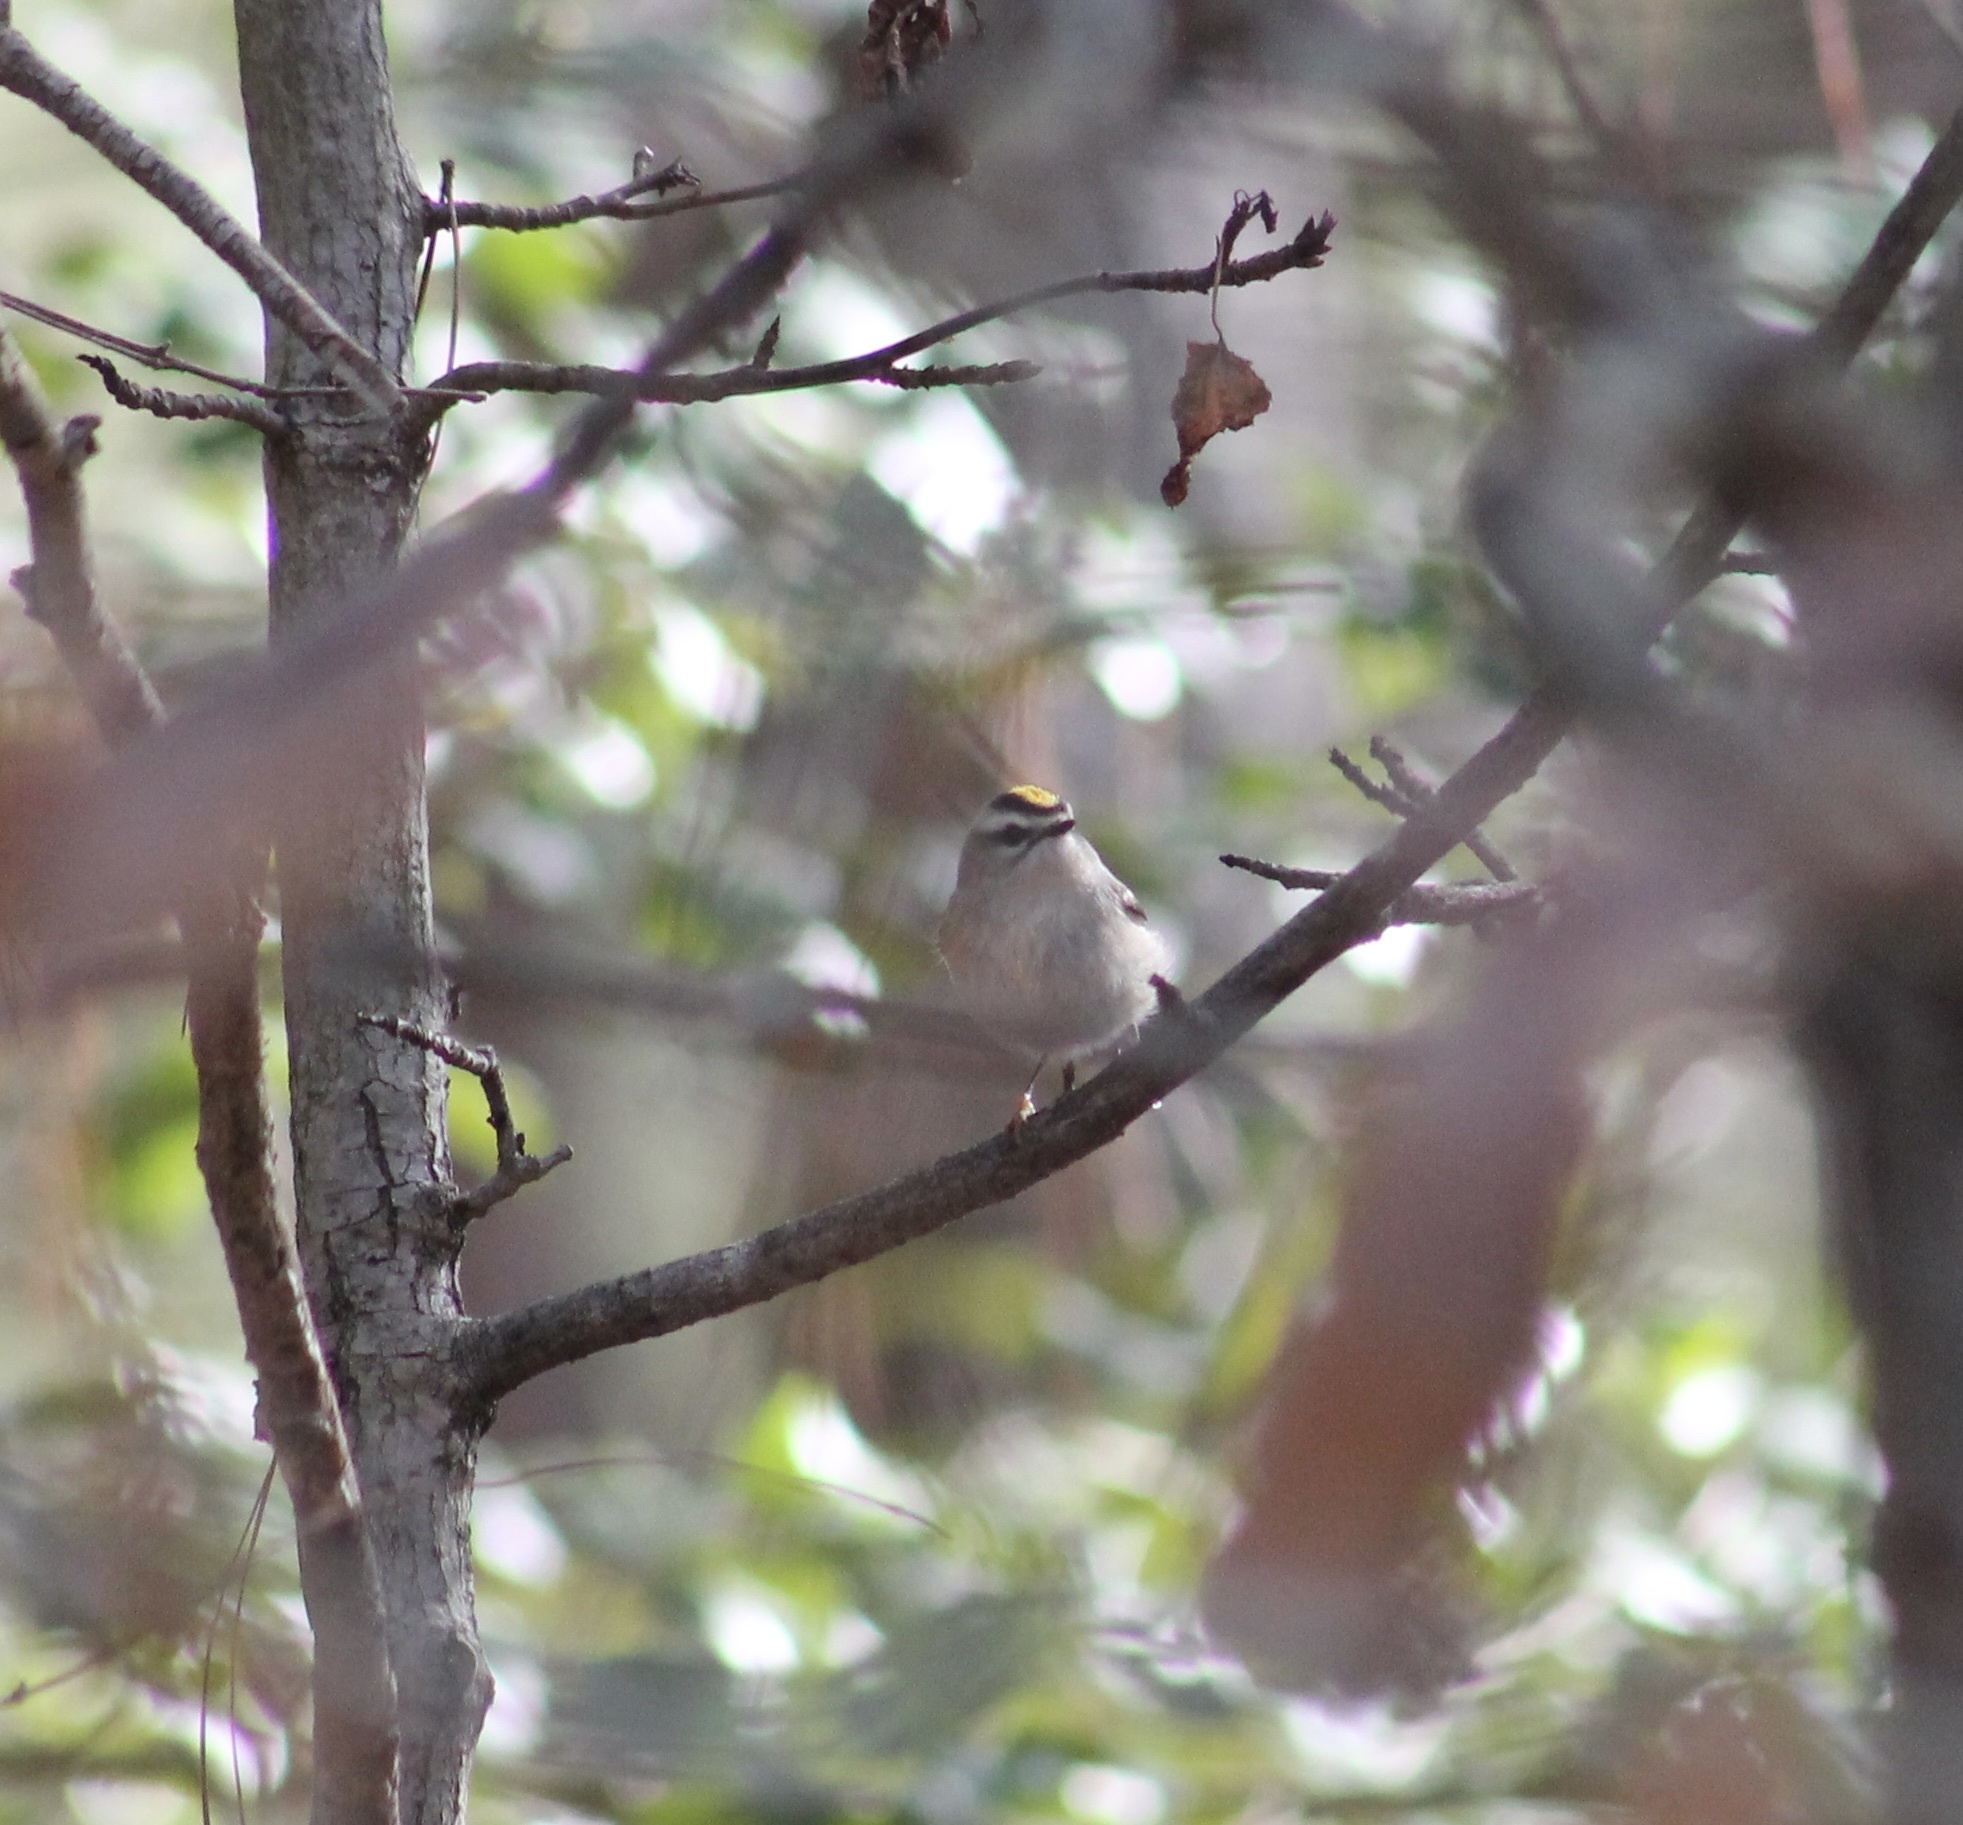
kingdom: Animalia
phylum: Chordata
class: Aves
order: Passeriformes
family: Regulidae
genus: Regulus
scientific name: Regulus satrapa
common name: Golden-crowned kinglet
